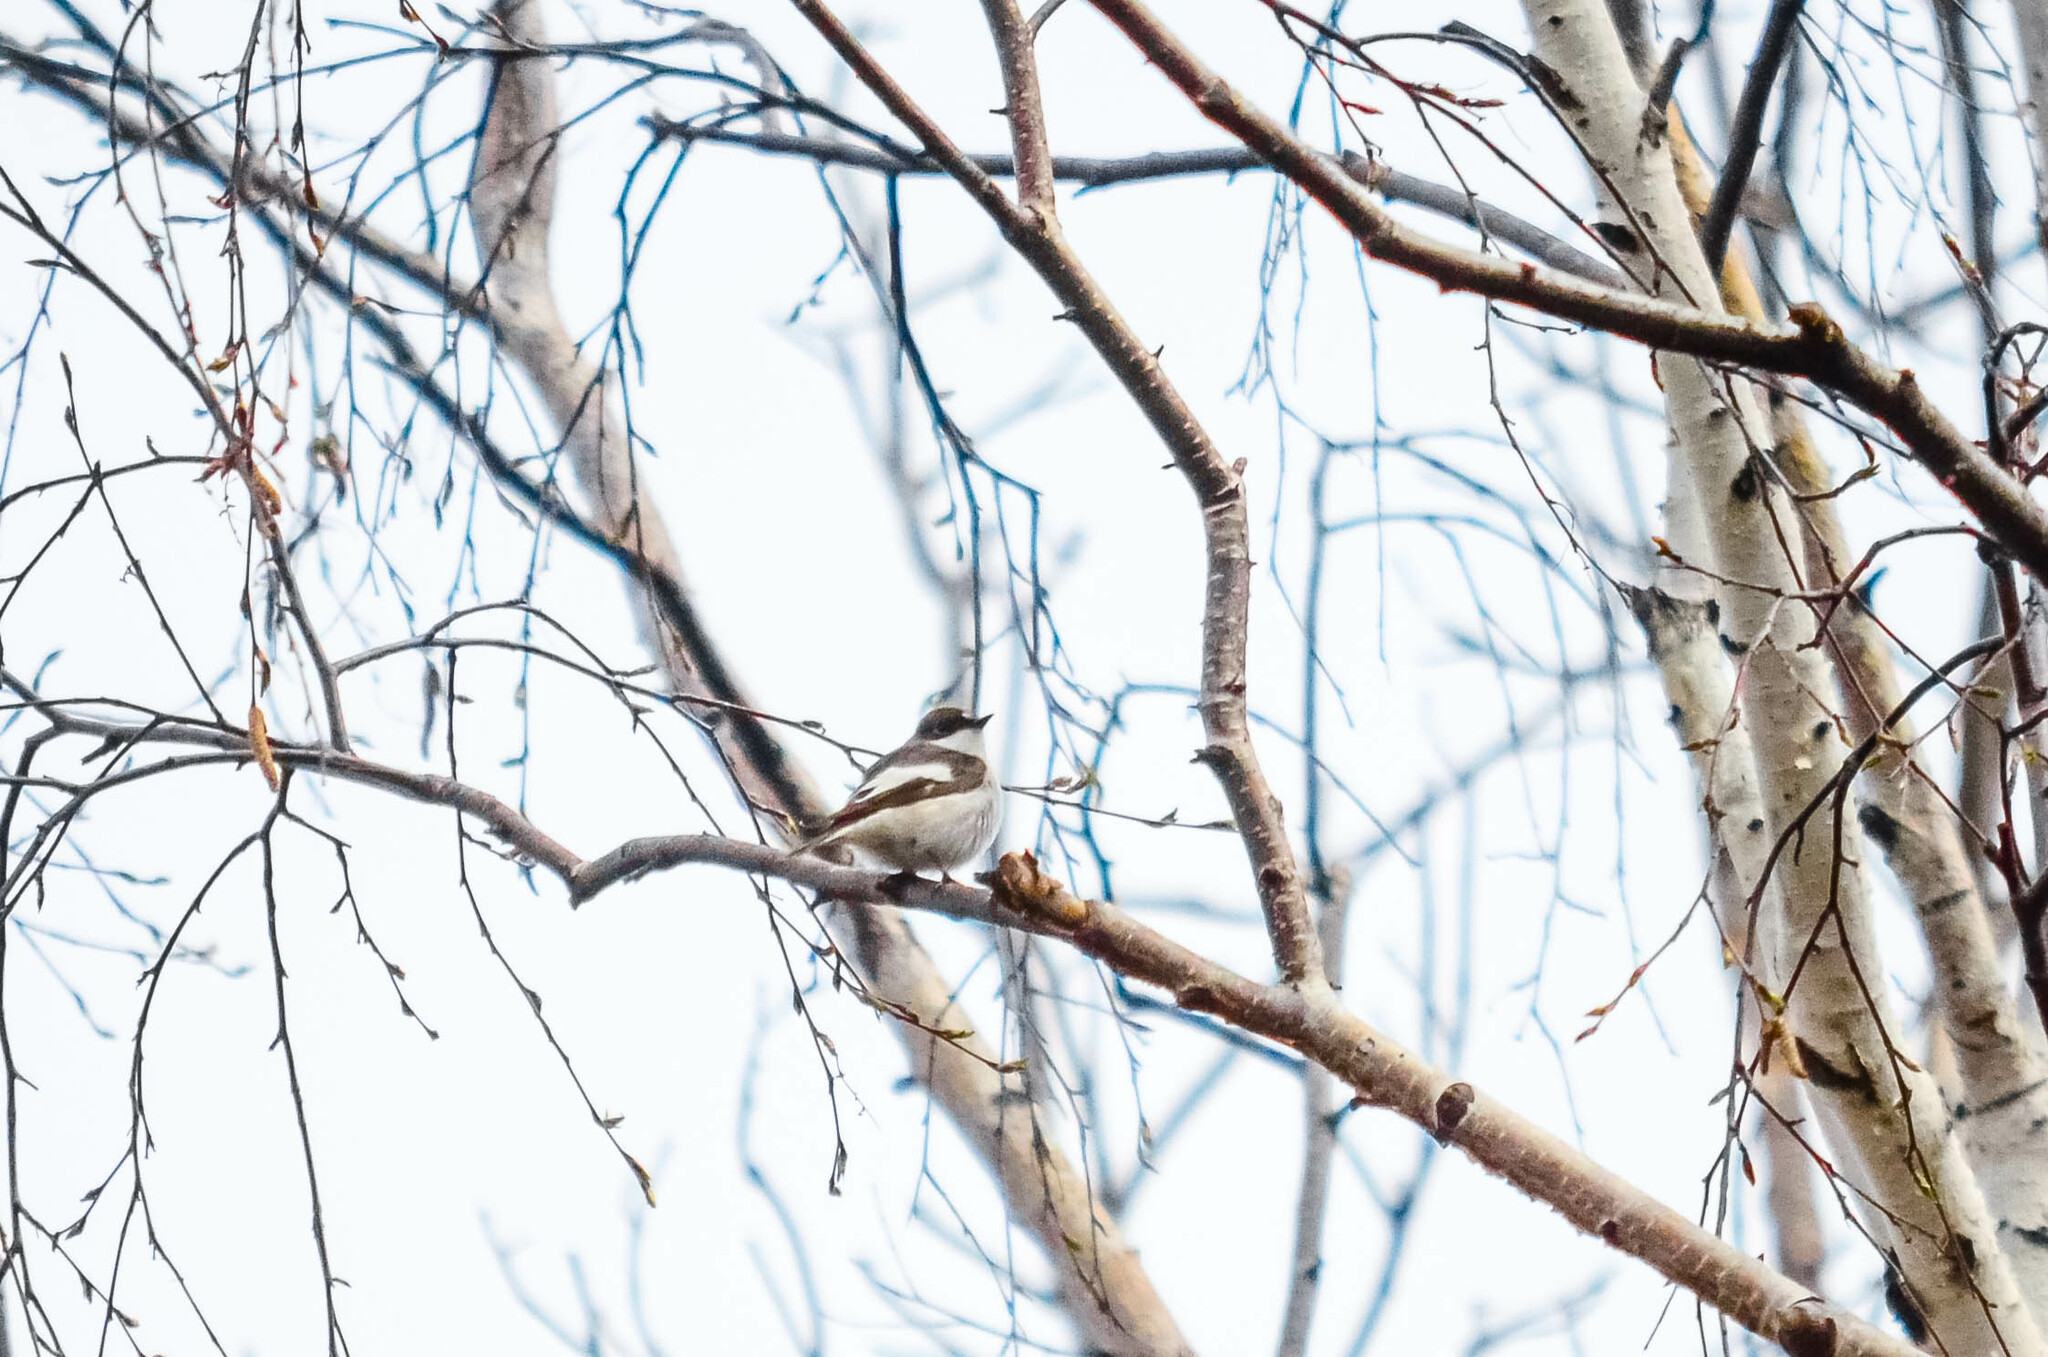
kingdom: Animalia
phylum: Chordata
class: Aves
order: Passeriformes
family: Muscicapidae
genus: Ficedula
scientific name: Ficedula hypoleuca
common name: European pied flycatcher
